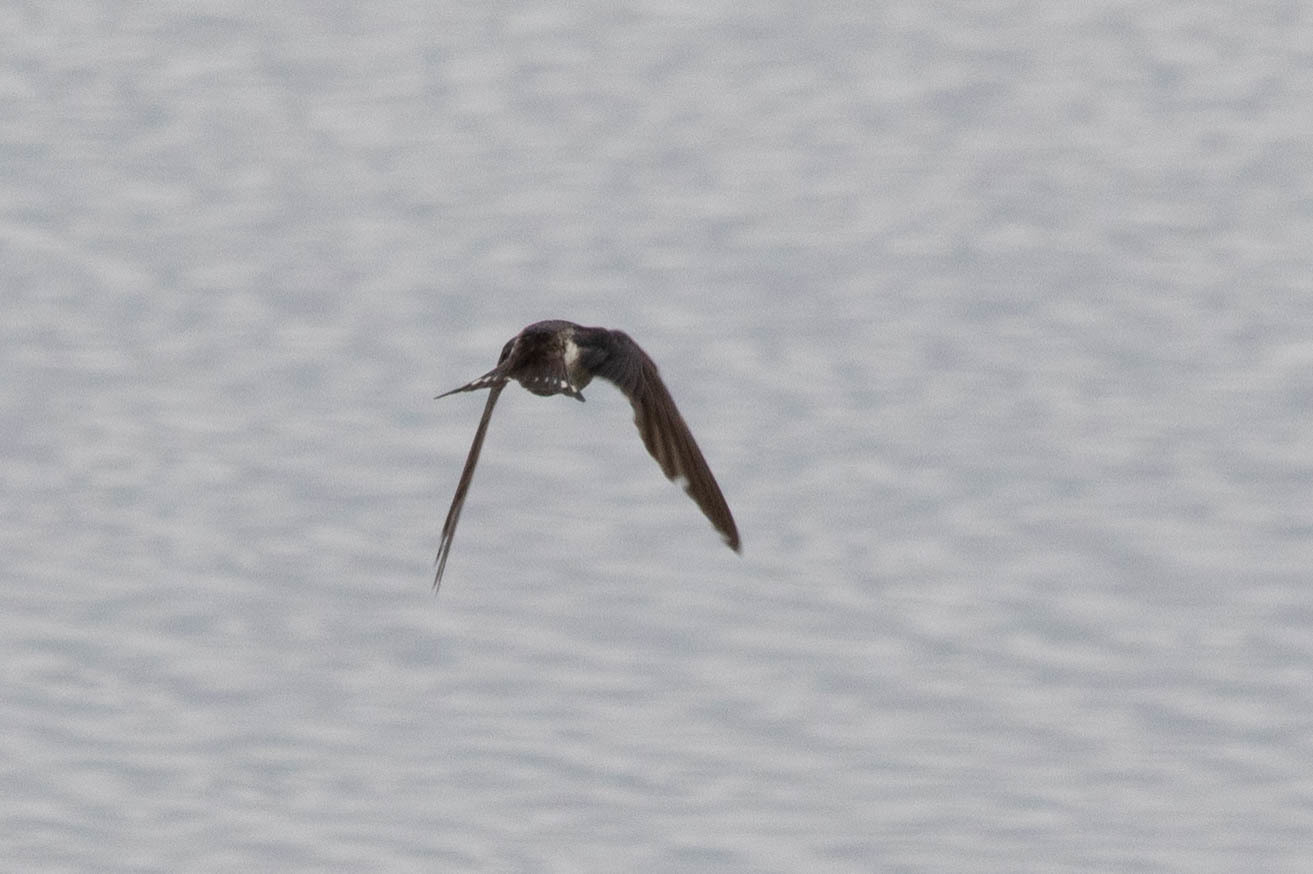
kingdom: Animalia
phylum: Chordata
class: Aves
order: Passeriformes
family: Hirundinidae
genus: Hirundo
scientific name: Hirundo rustica
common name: Barn swallow
